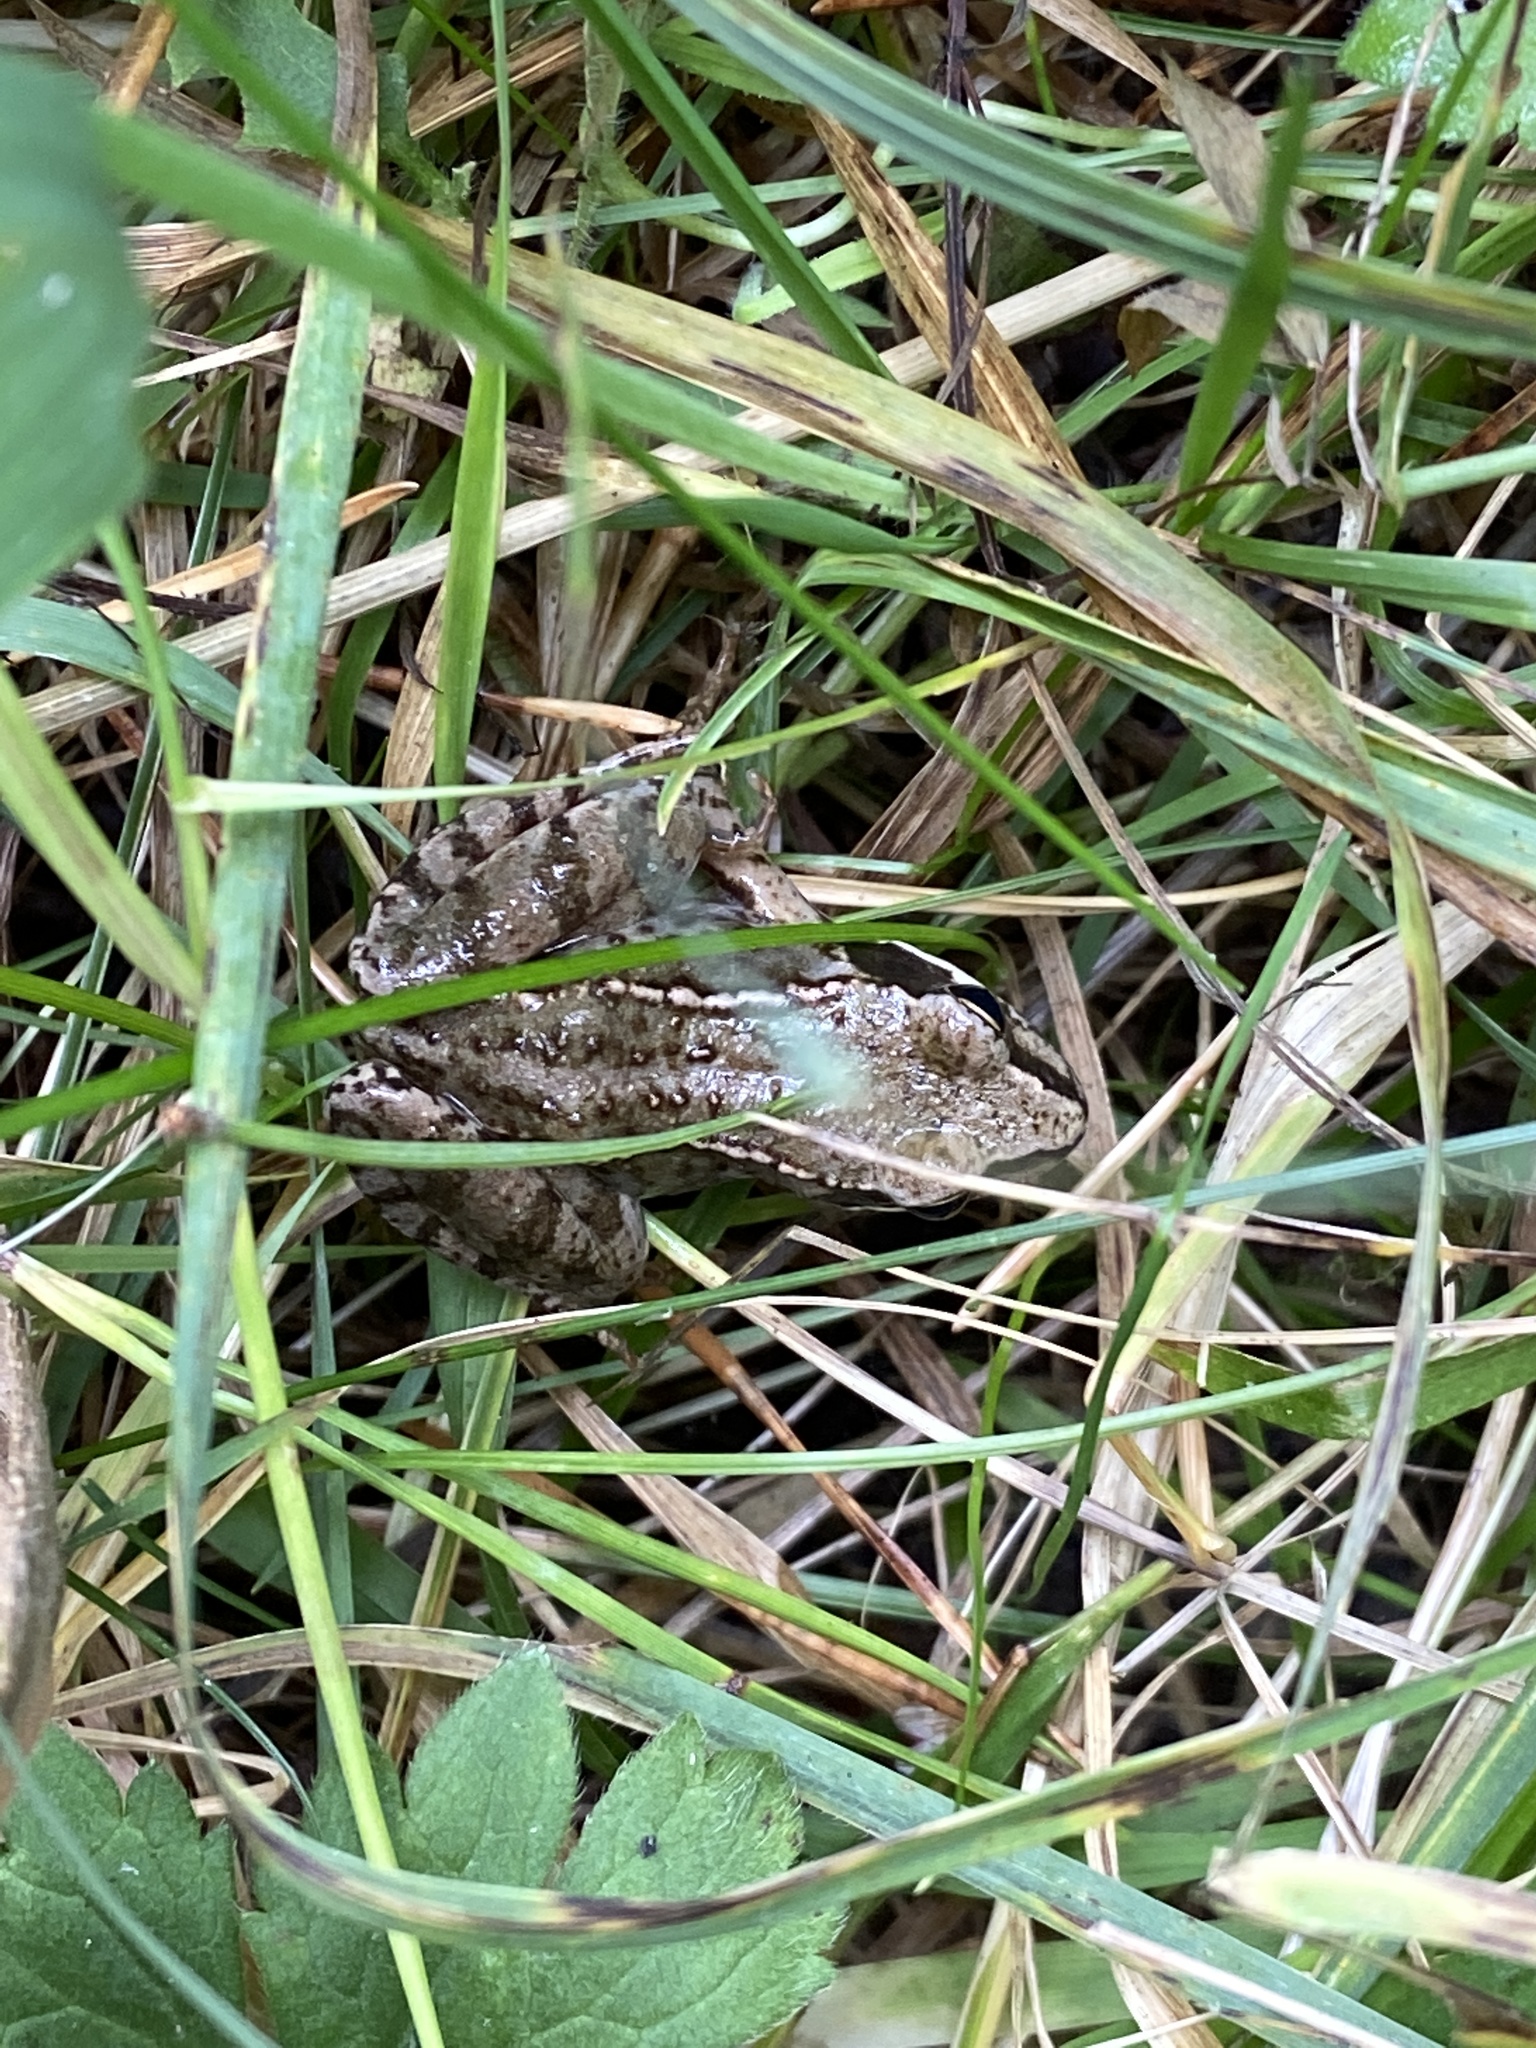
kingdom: Animalia
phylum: Chordata
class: Amphibia
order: Anura
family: Ranidae
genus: Rana
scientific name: Rana temporaria
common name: Common frog
